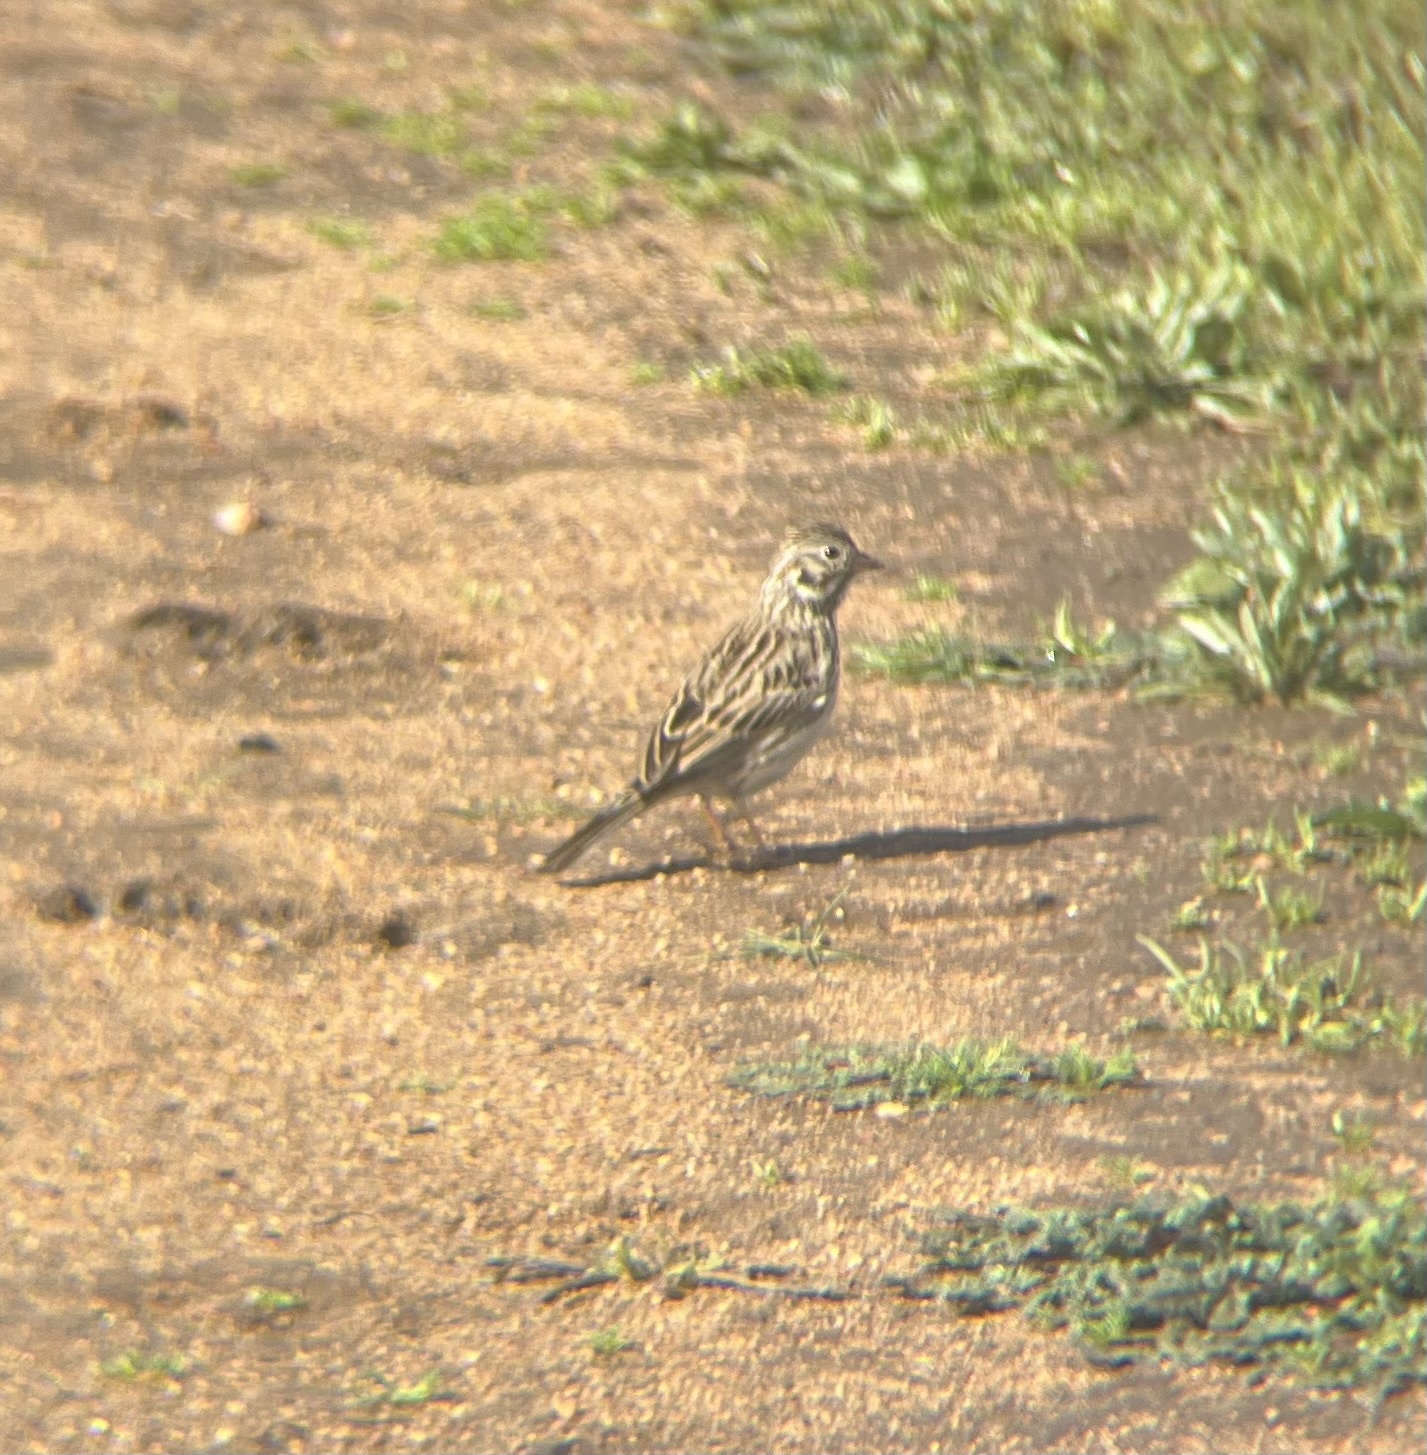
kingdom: Animalia
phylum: Chordata
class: Aves
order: Passeriformes
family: Passerellidae
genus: Pooecetes
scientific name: Pooecetes gramineus
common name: Vesper sparrow
